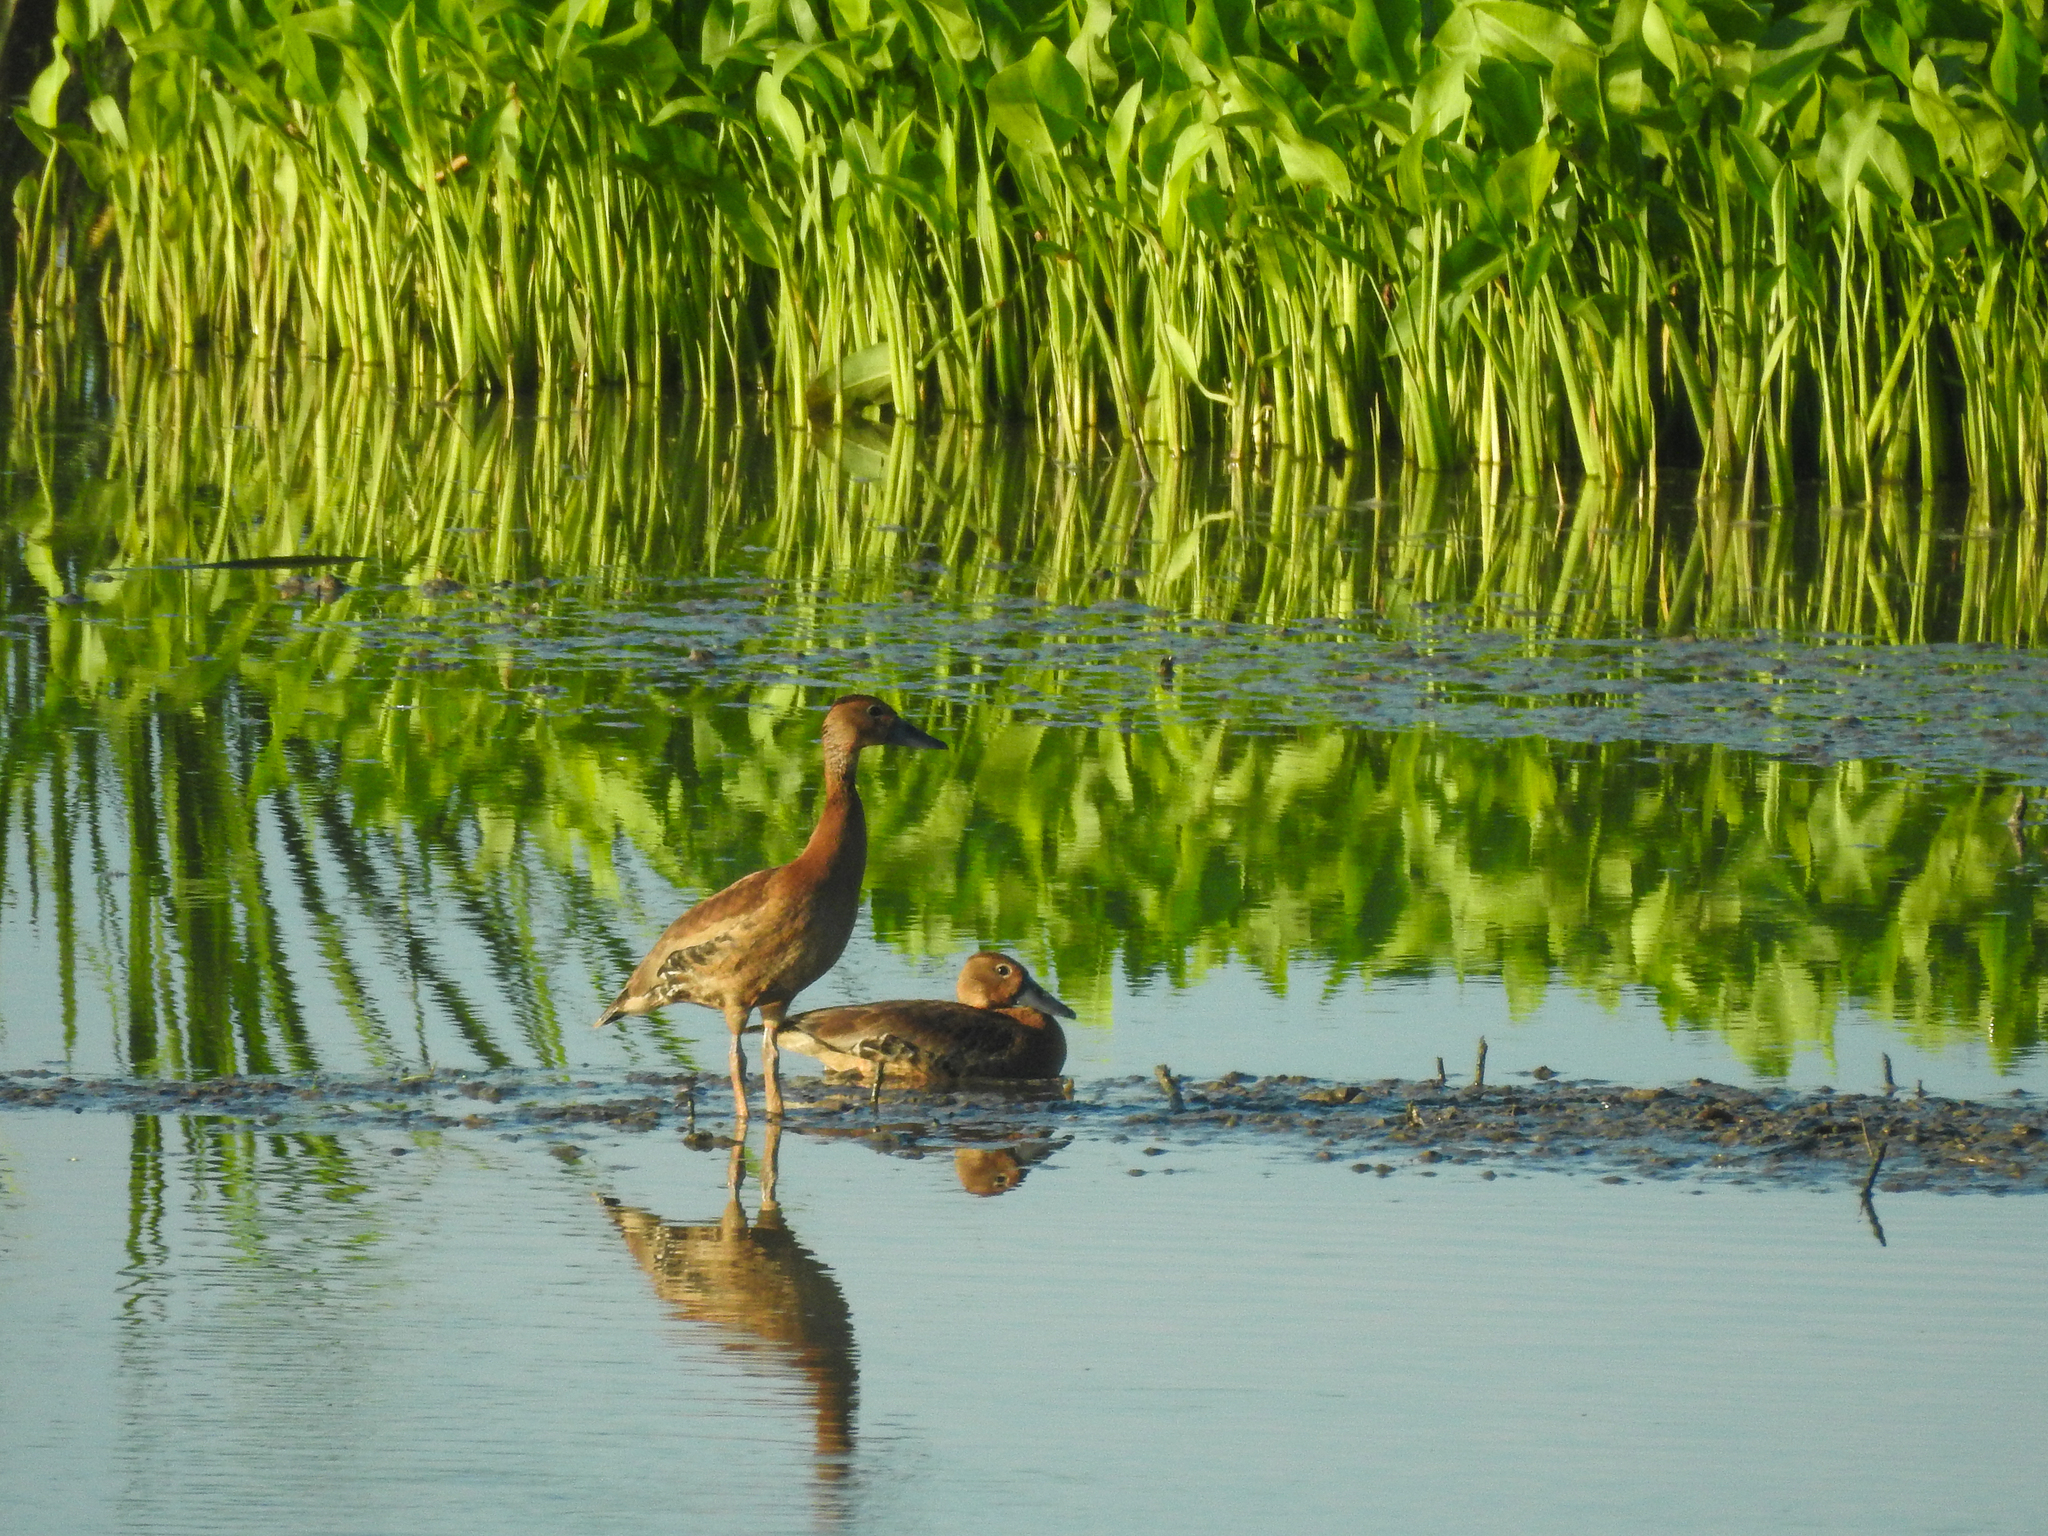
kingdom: Animalia
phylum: Chordata
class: Aves
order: Anseriformes
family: Anatidae
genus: Dendrocygna
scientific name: Dendrocygna autumnalis
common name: Black-bellied whistling duck
